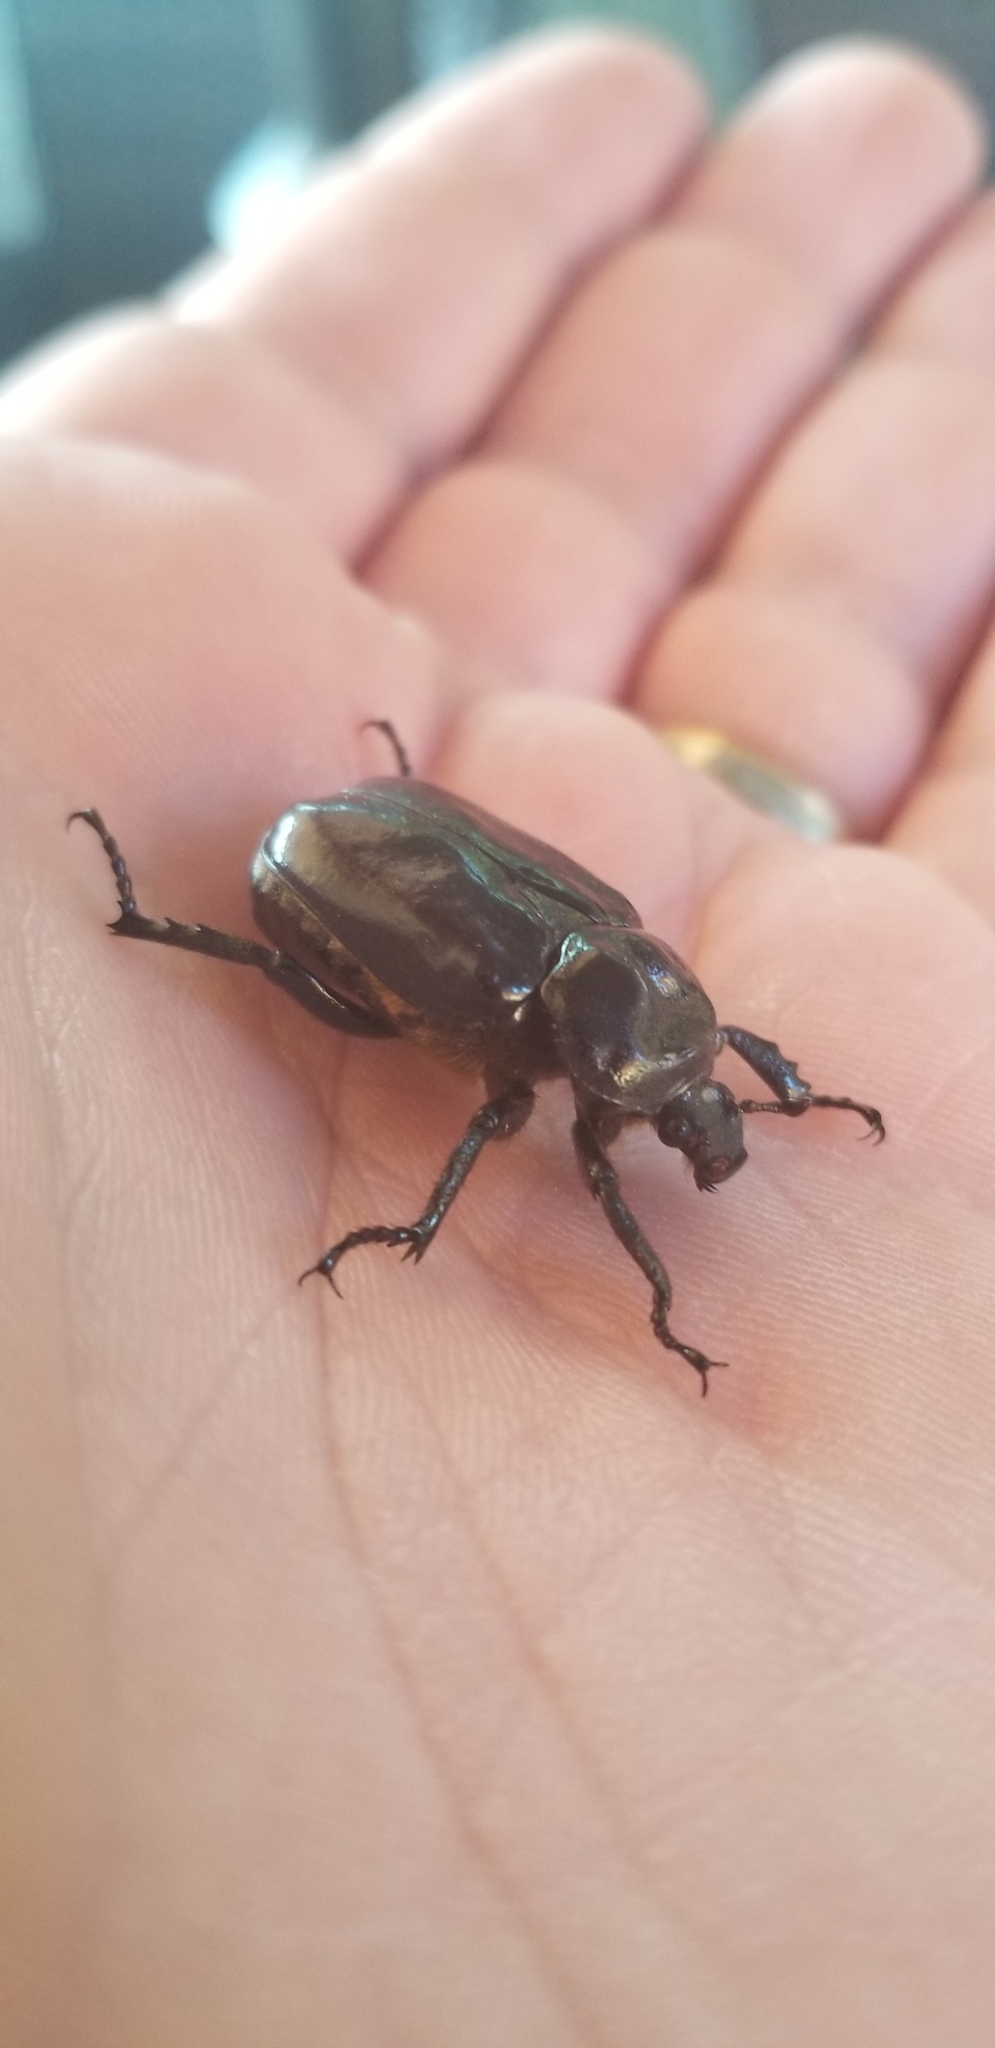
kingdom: Animalia
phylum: Arthropoda
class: Insecta
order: Coleoptera
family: Scarabaeidae
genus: Osmoderma
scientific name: Osmoderma eremicola
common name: Hermit flower beetle
